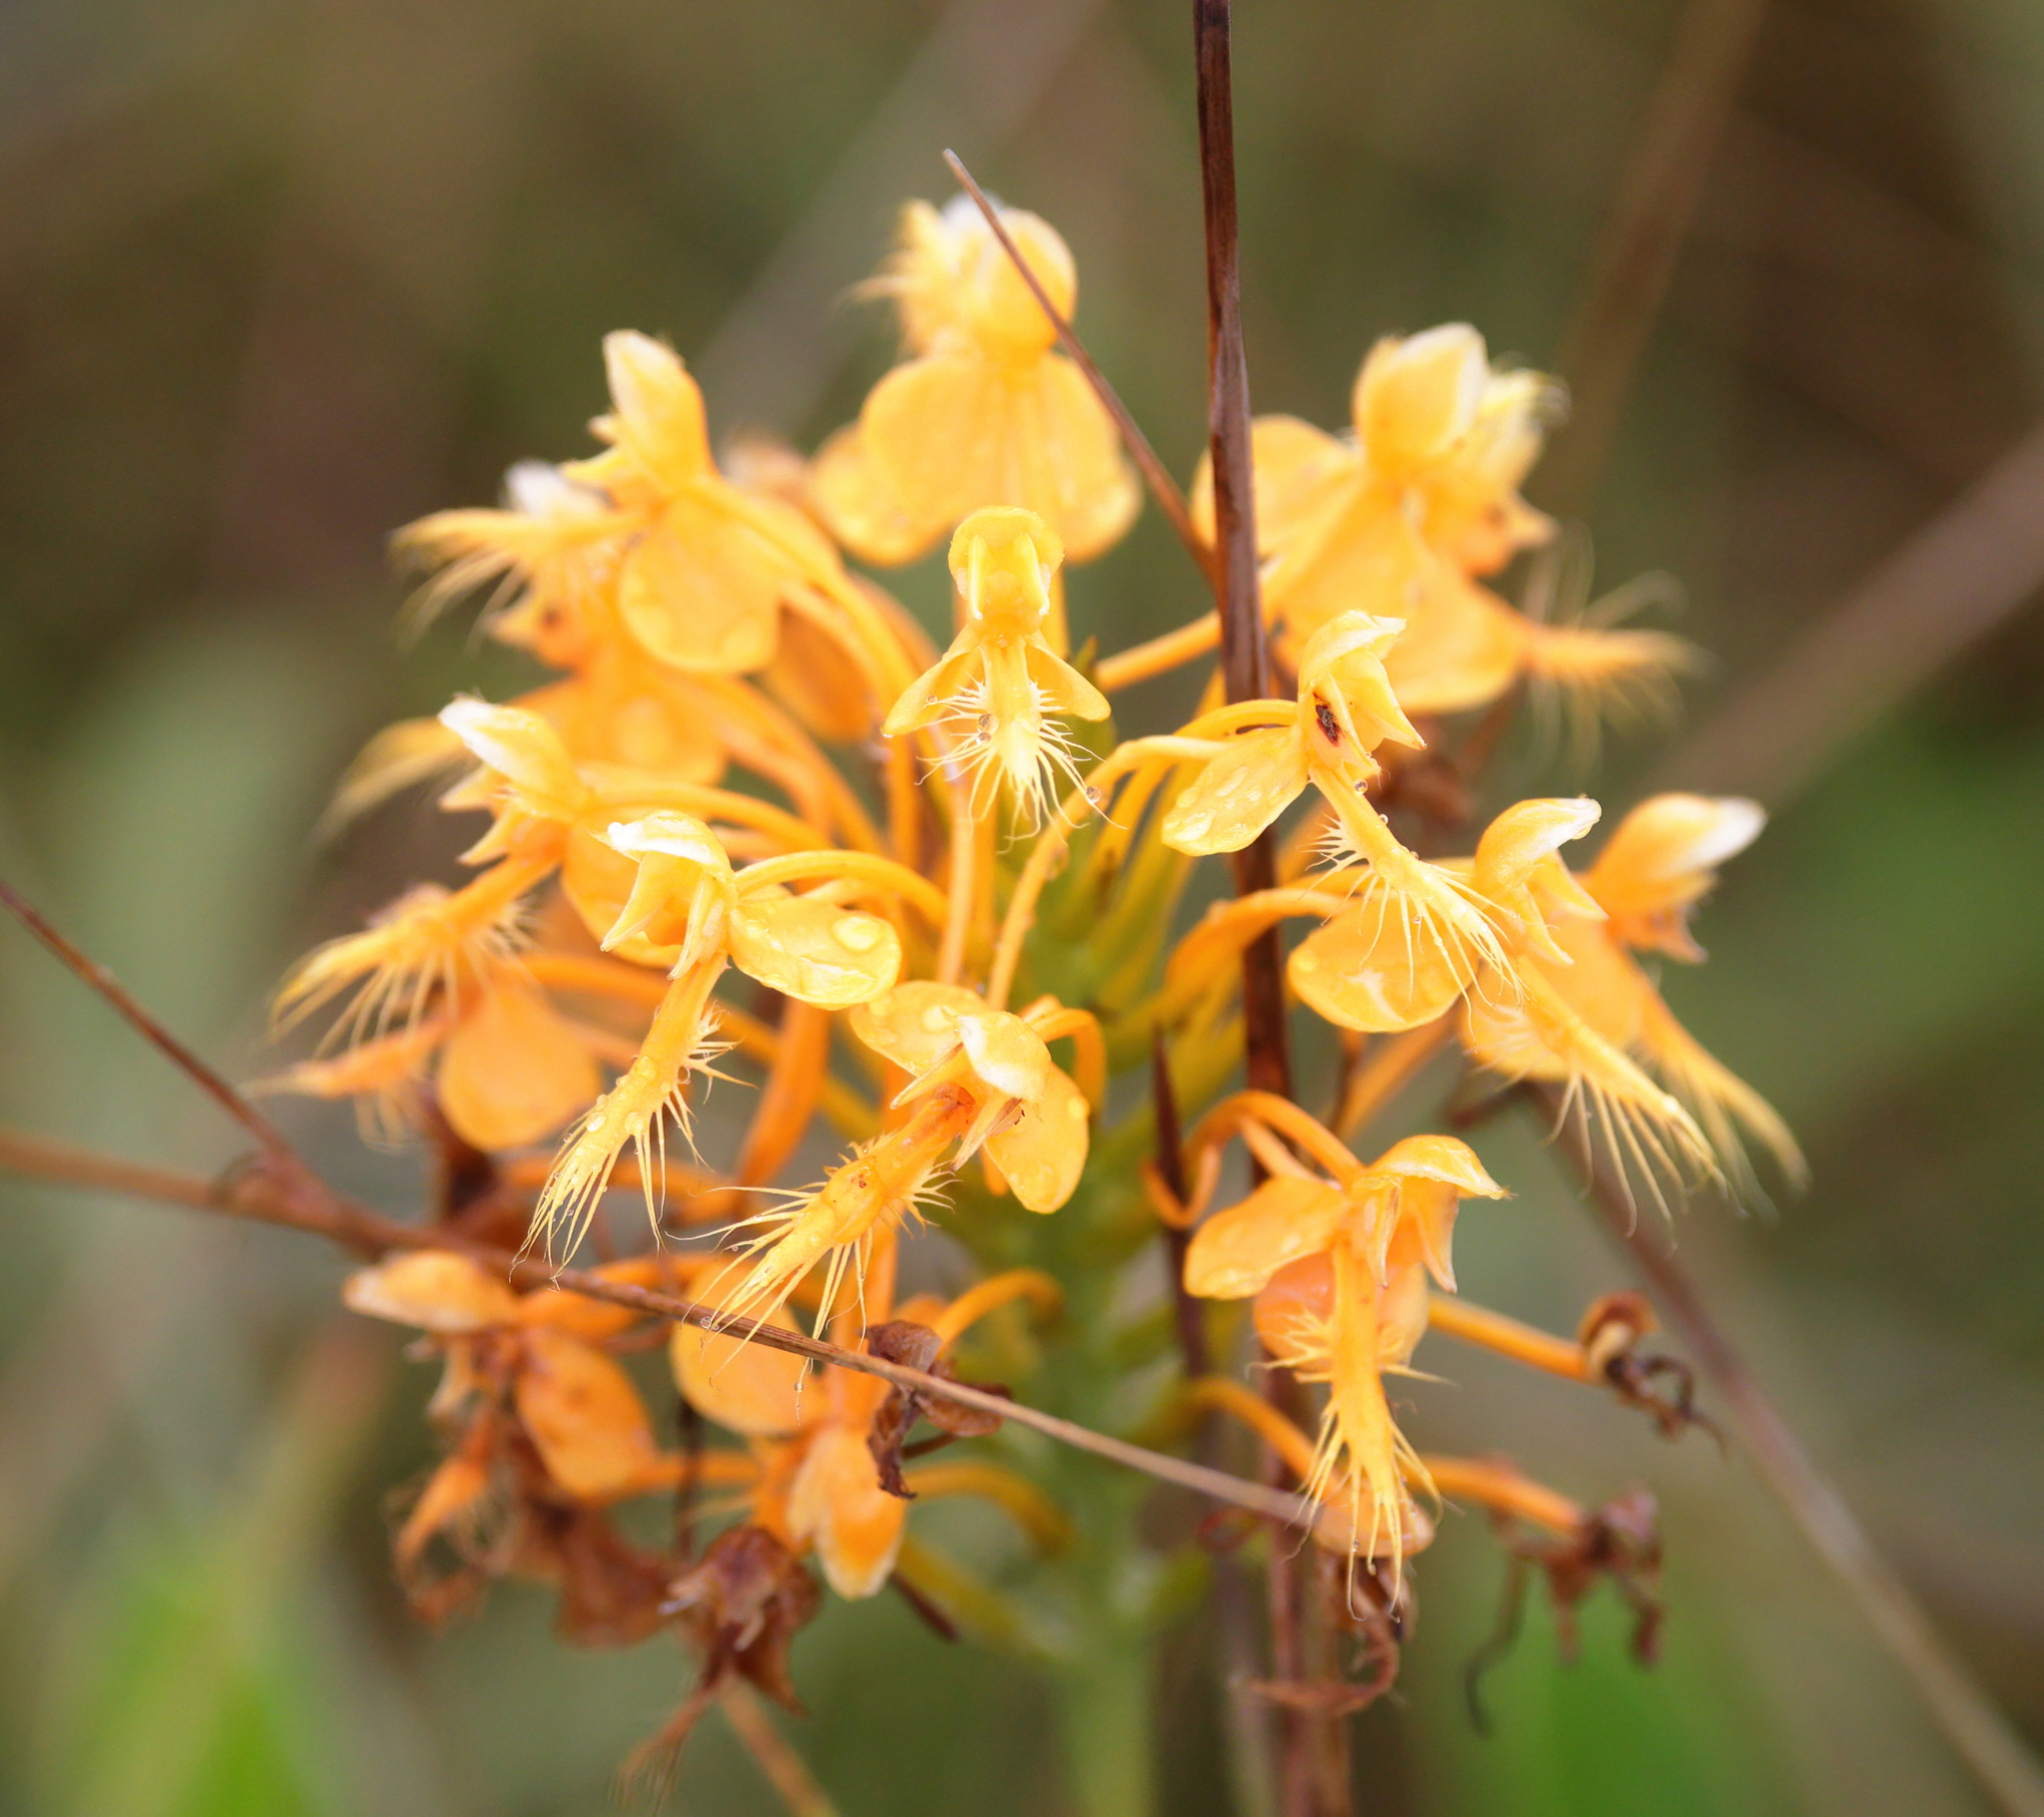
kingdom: Plantae
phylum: Tracheophyta
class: Liliopsida
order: Asparagales
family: Orchidaceae
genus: Platanthera
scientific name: Platanthera ciliaris
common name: Yellow fringed orchid
